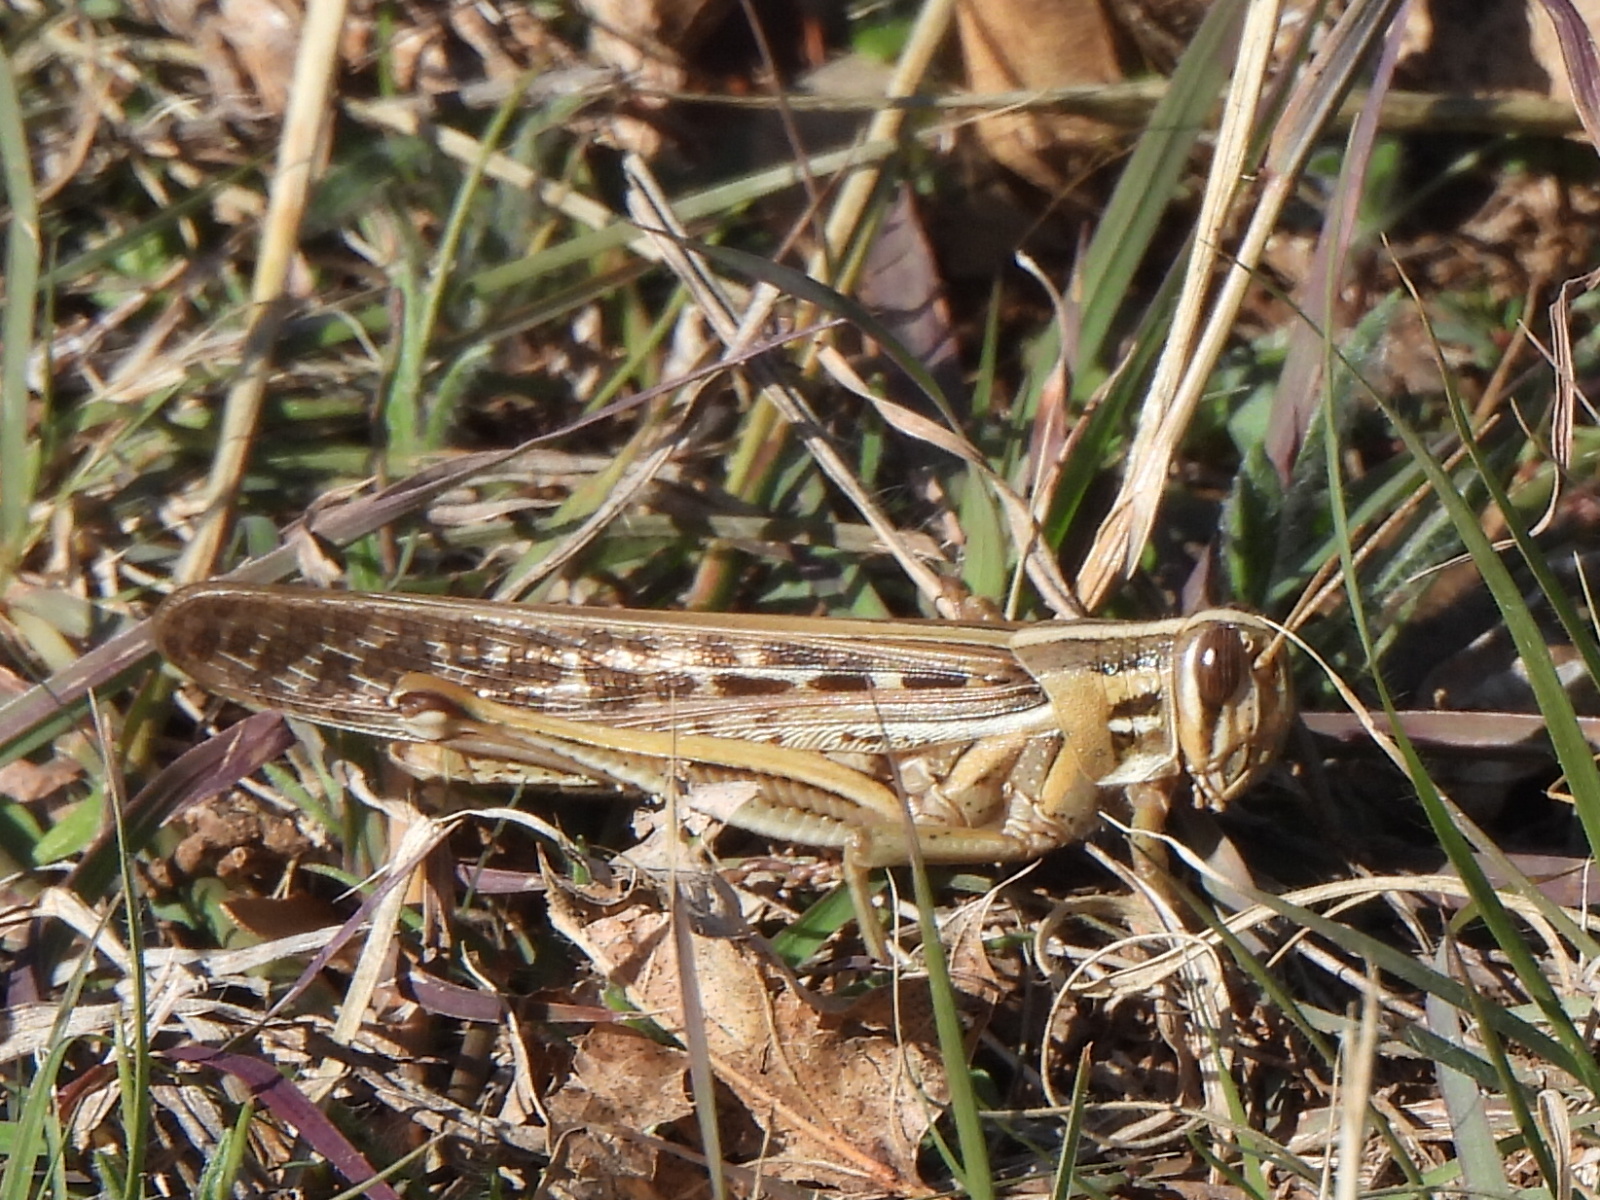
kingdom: Animalia
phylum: Arthropoda
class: Insecta
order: Orthoptera
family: Acrididae
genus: Schistocerca
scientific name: Schistocerca americana
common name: American bird locust
